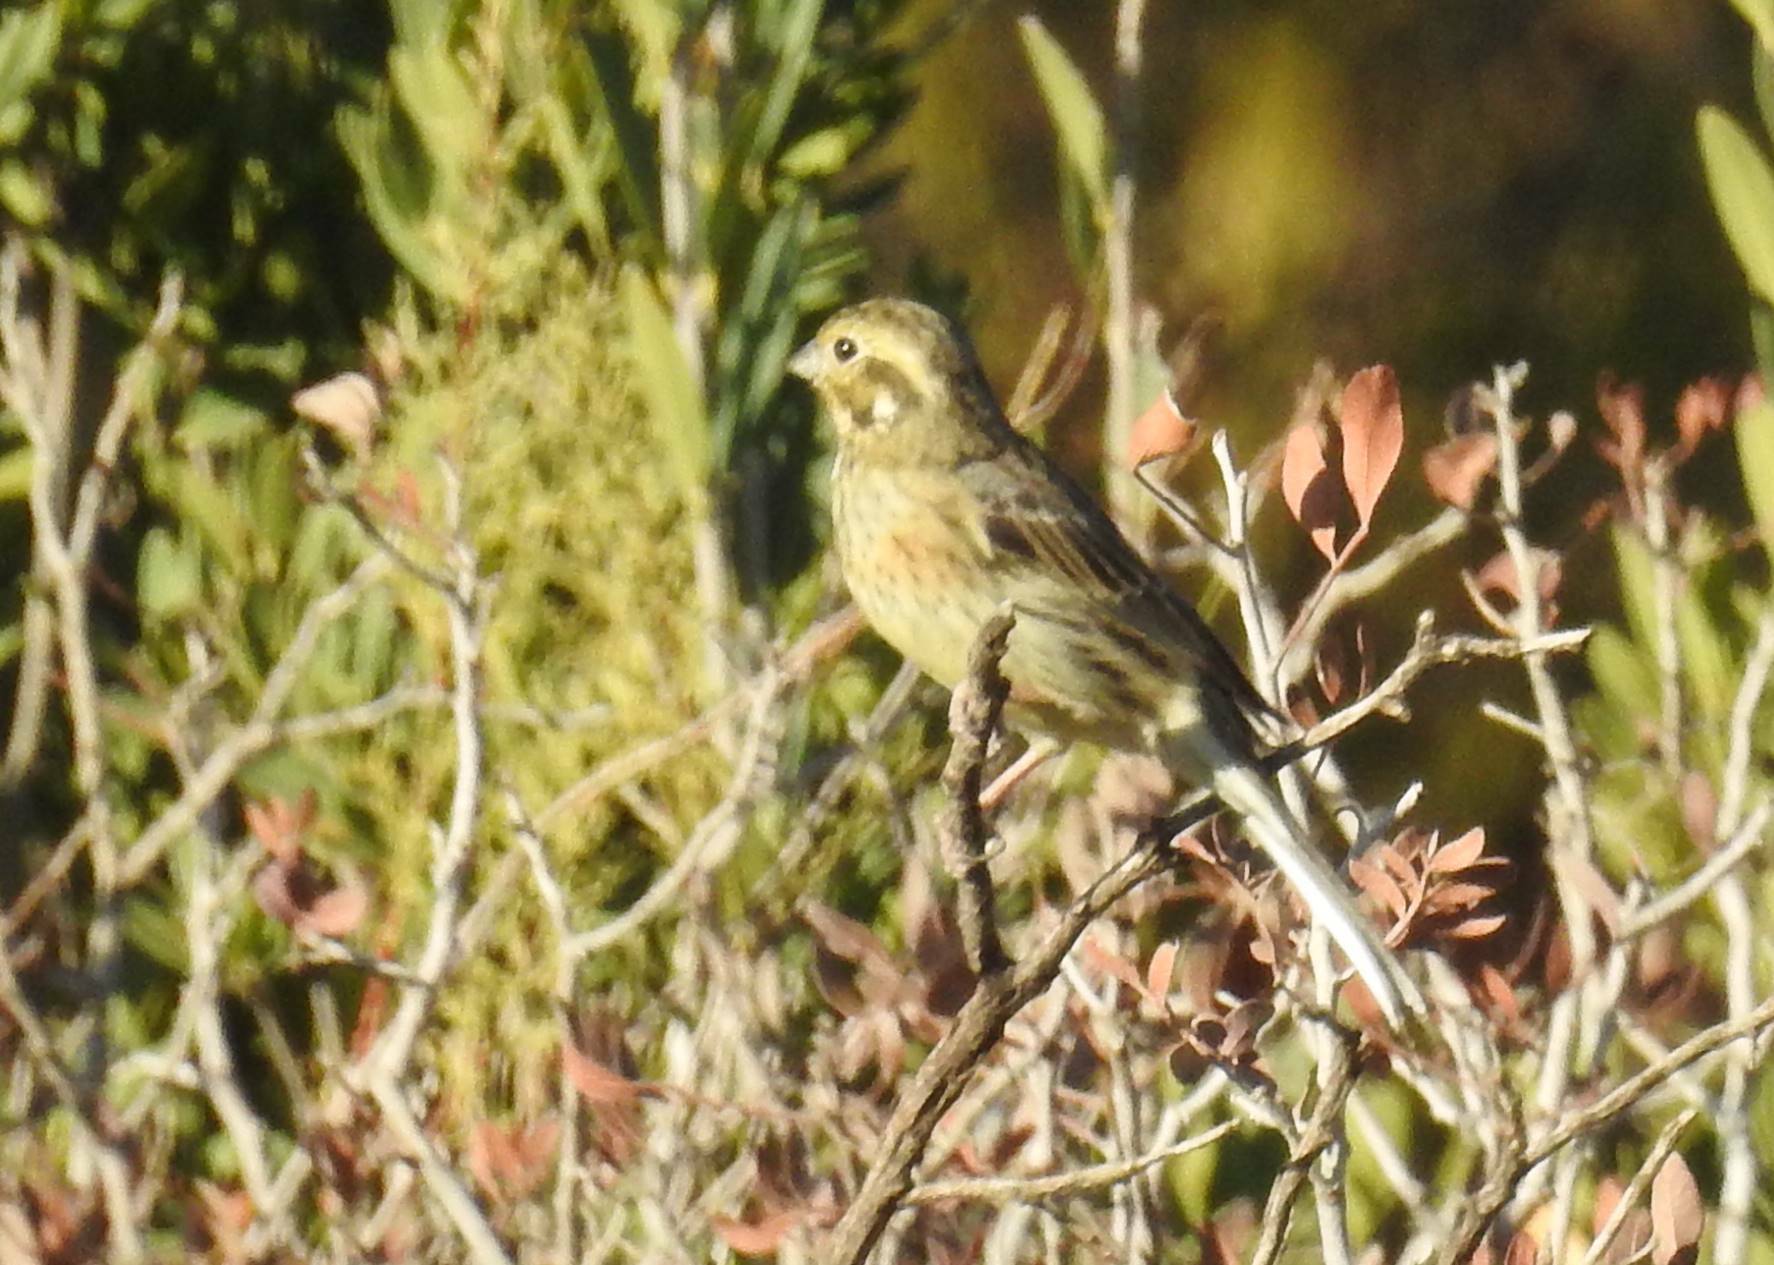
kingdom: Animalia
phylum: Chordata
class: Aves
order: Passeriformes
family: Emberizidae
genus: Emberiza
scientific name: Emberiza cirlus
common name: Cirl bunting
